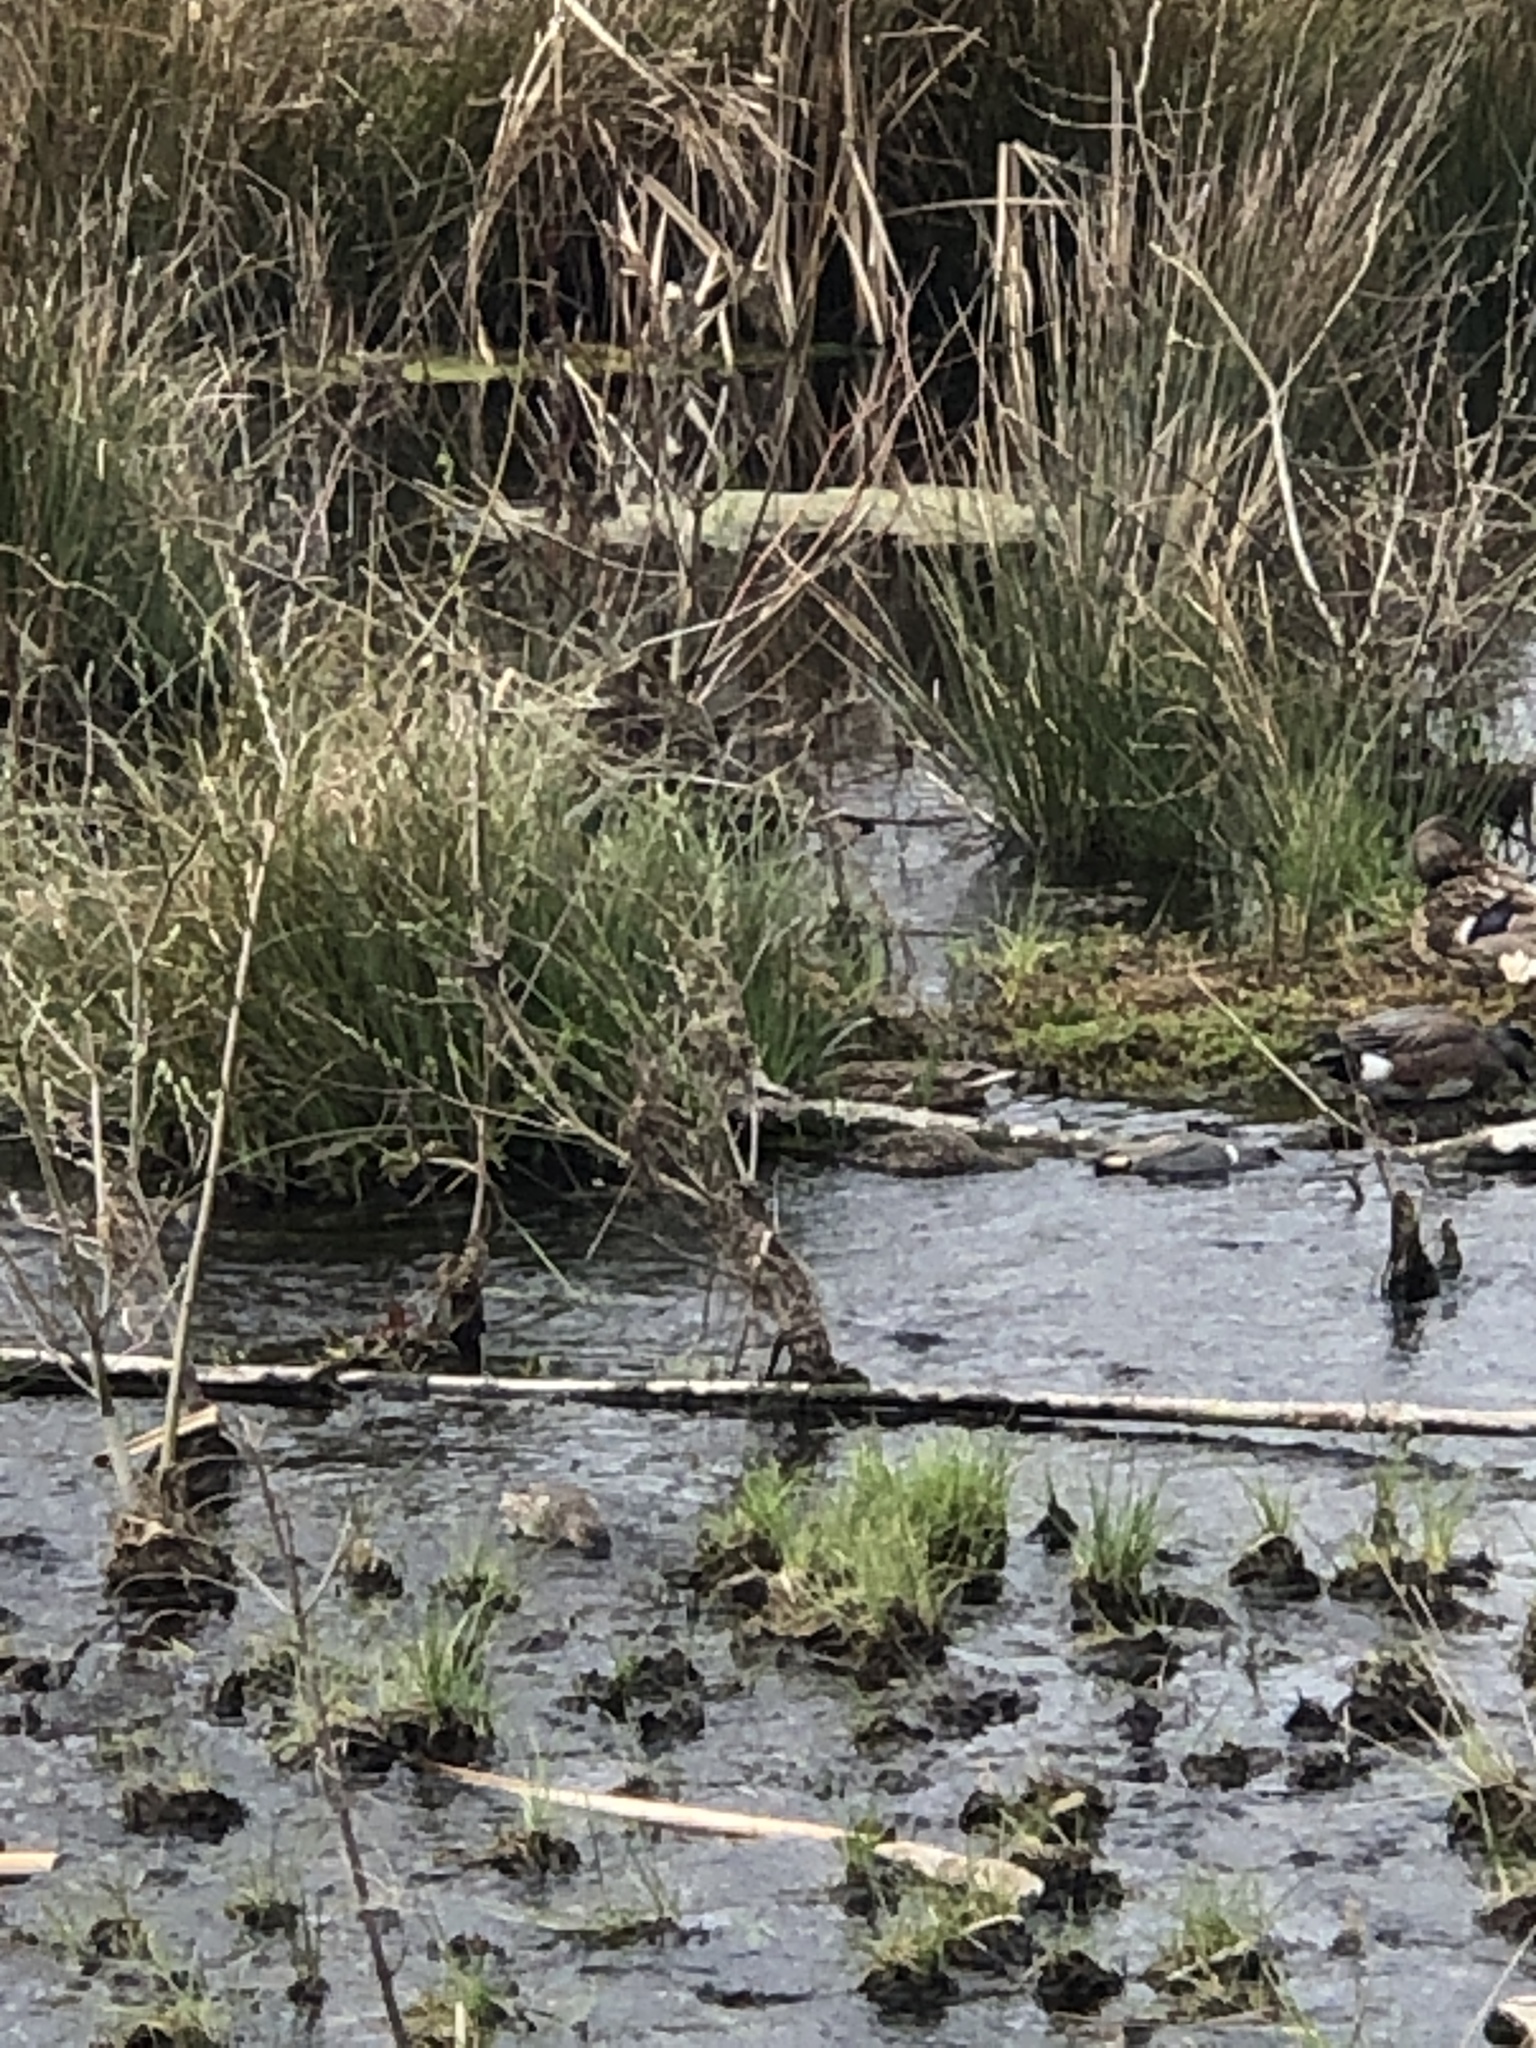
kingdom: Animalia
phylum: Chordata
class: Aves
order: Anseriformes
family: Anatidae
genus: Mareca
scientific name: Mareca americana
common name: American wigeon
